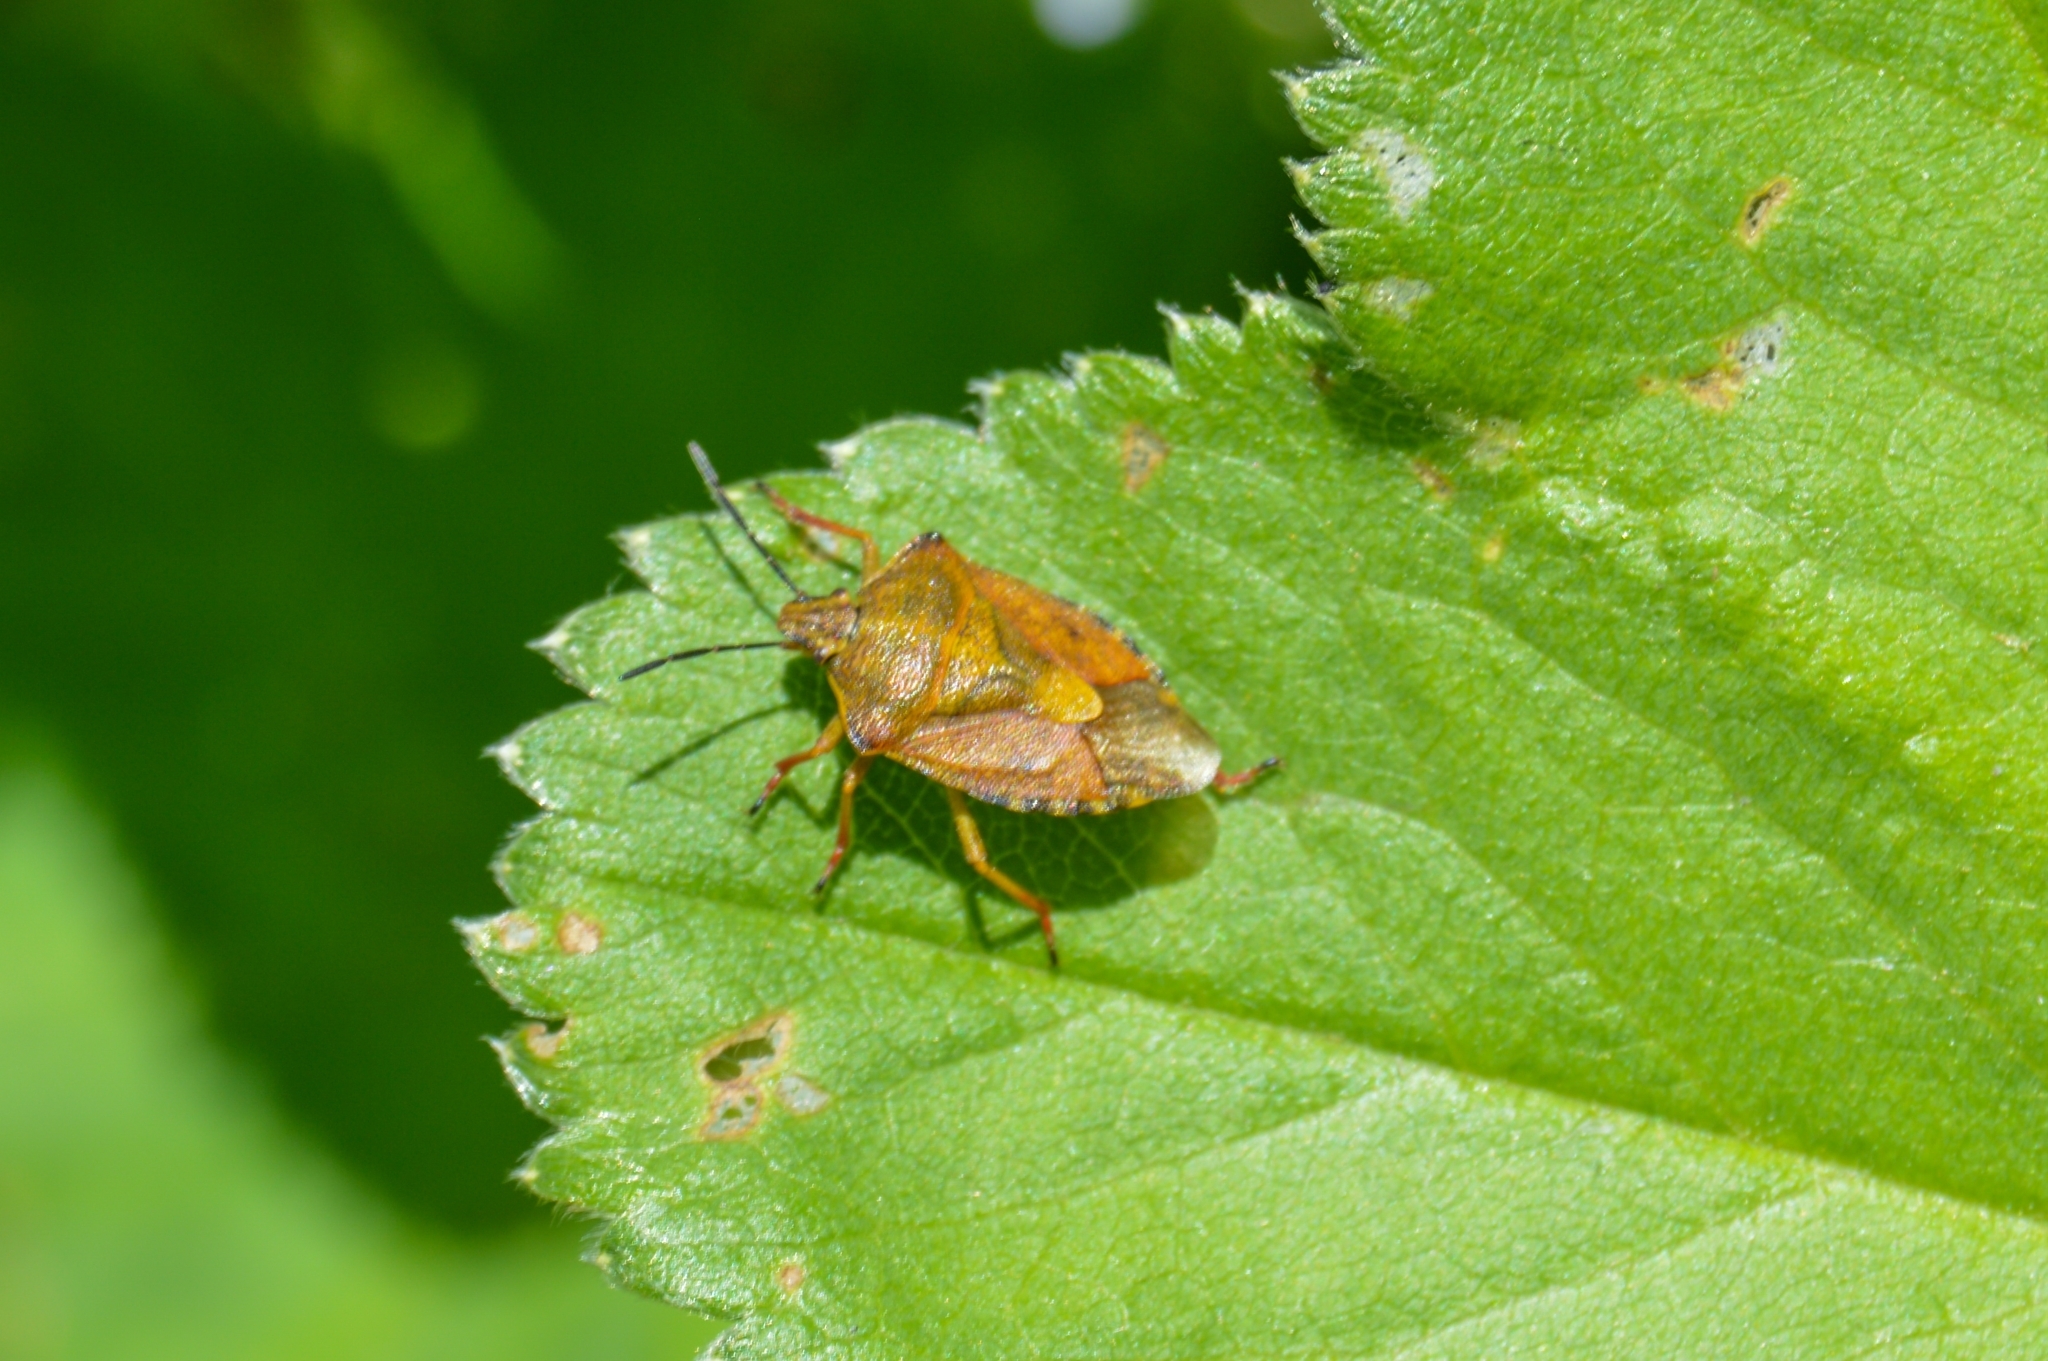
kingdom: Animalia
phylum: Arthropoda
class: Insecta
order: Hemiptera
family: Pentatomidae
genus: Carpocoris
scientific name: Carpocoris purpureipennis
